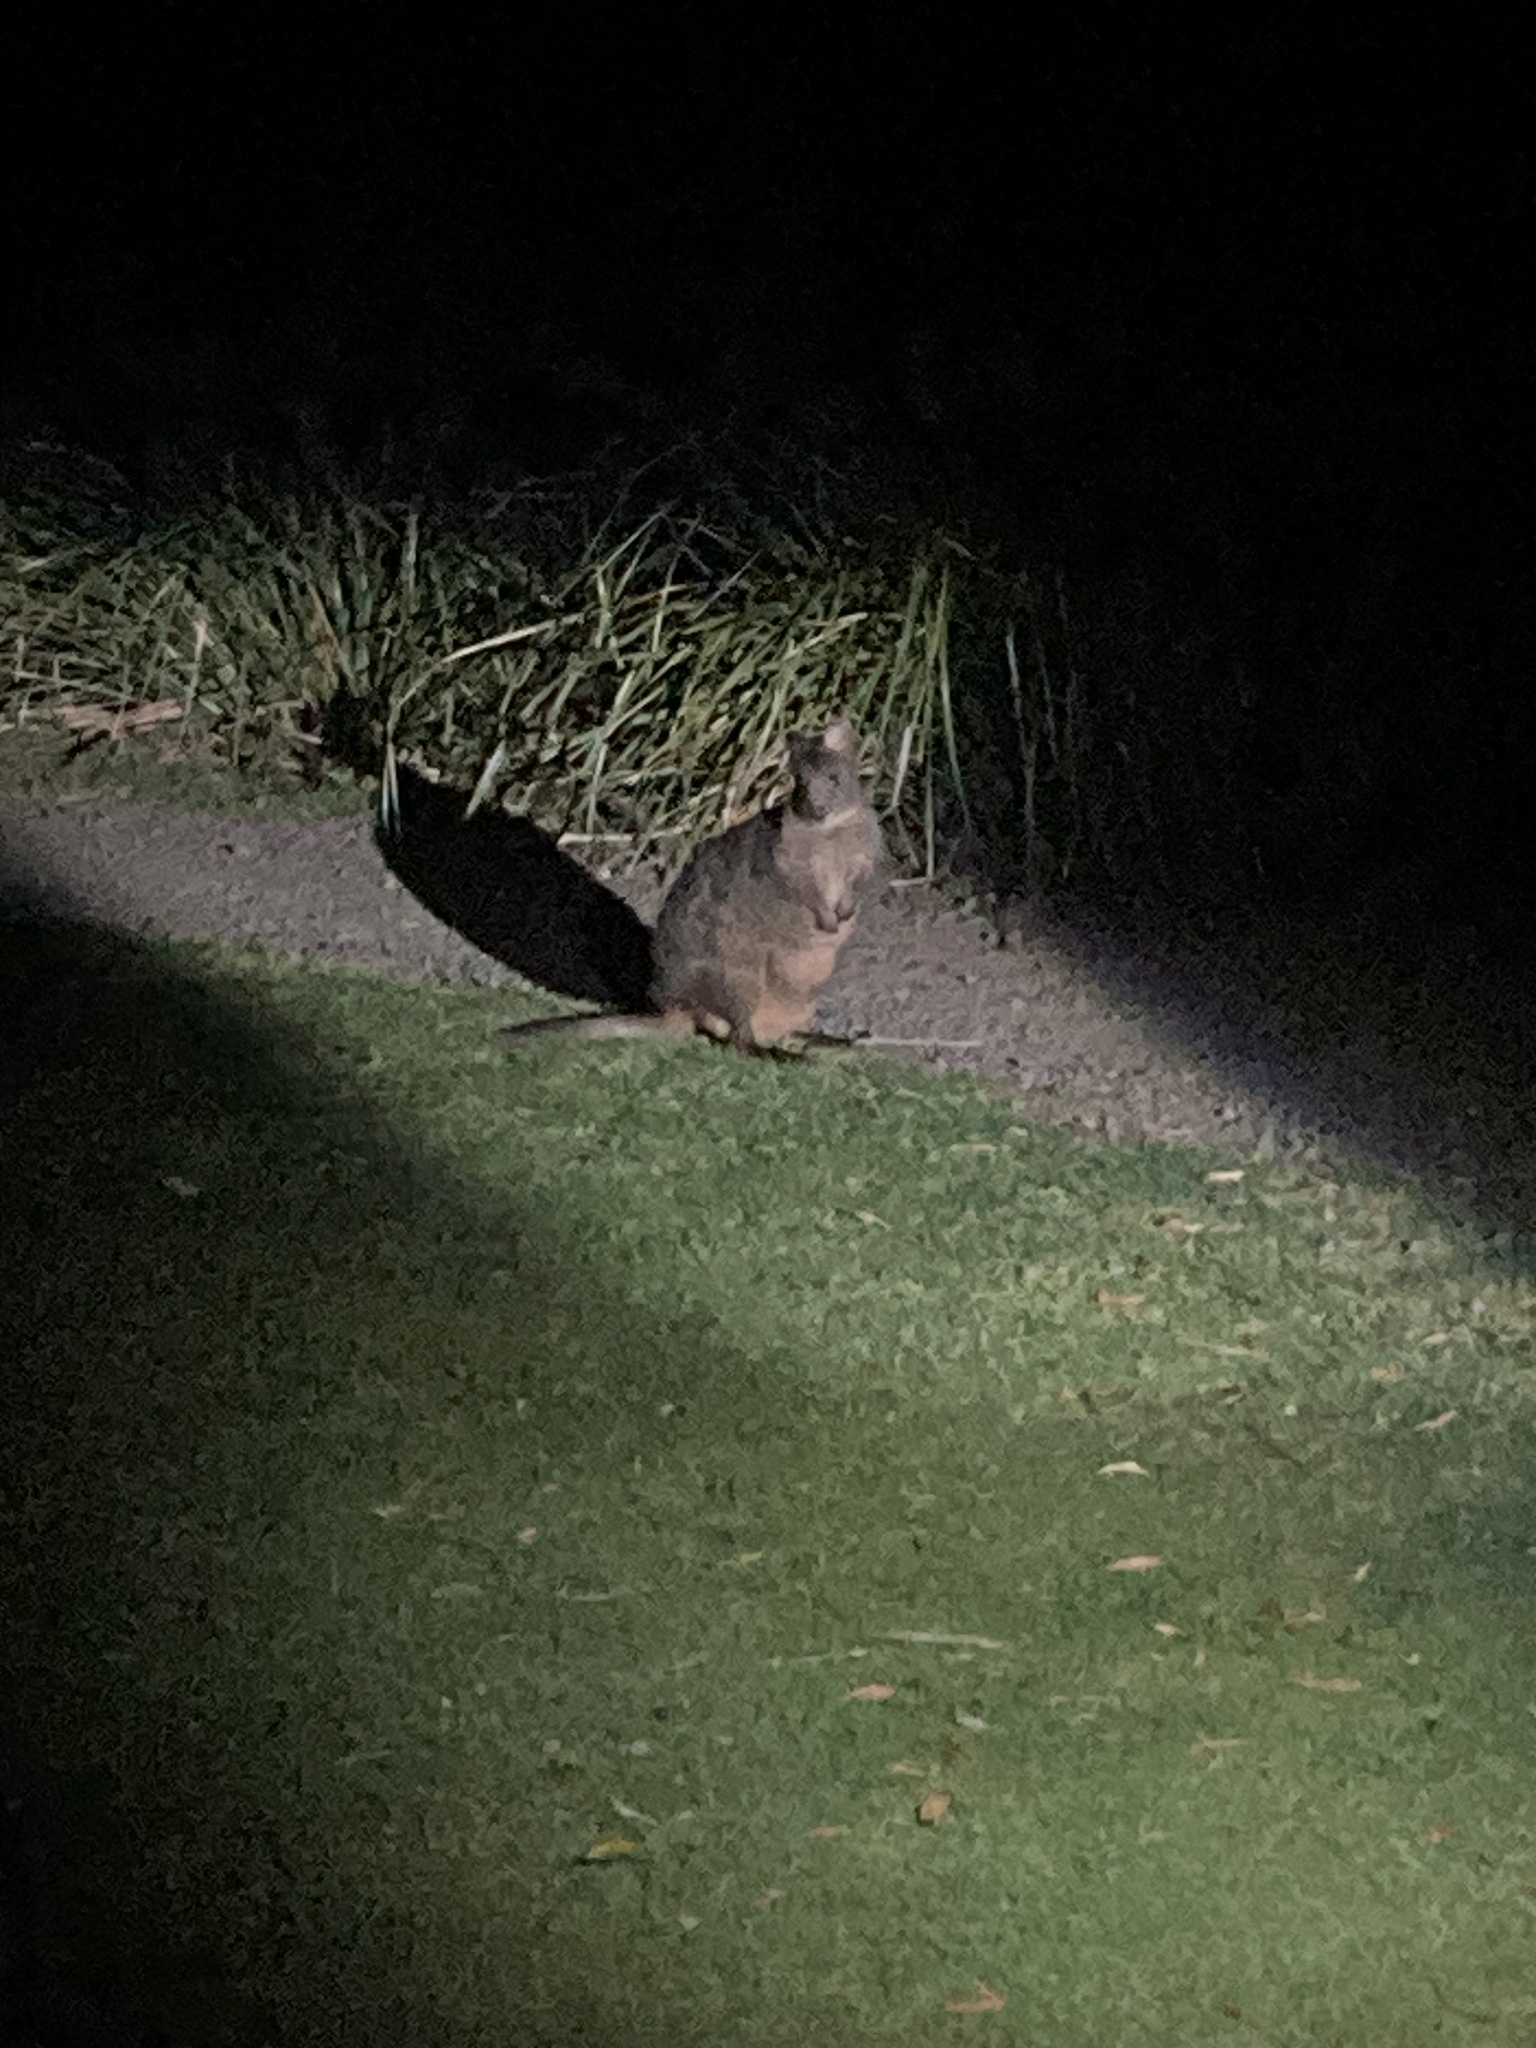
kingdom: Animalia
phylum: Chordata
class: Mammalia
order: Diprotodontia
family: Macropodidae
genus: Thylogale
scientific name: Thylogale billardierii
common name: Tasmanian pademelon
